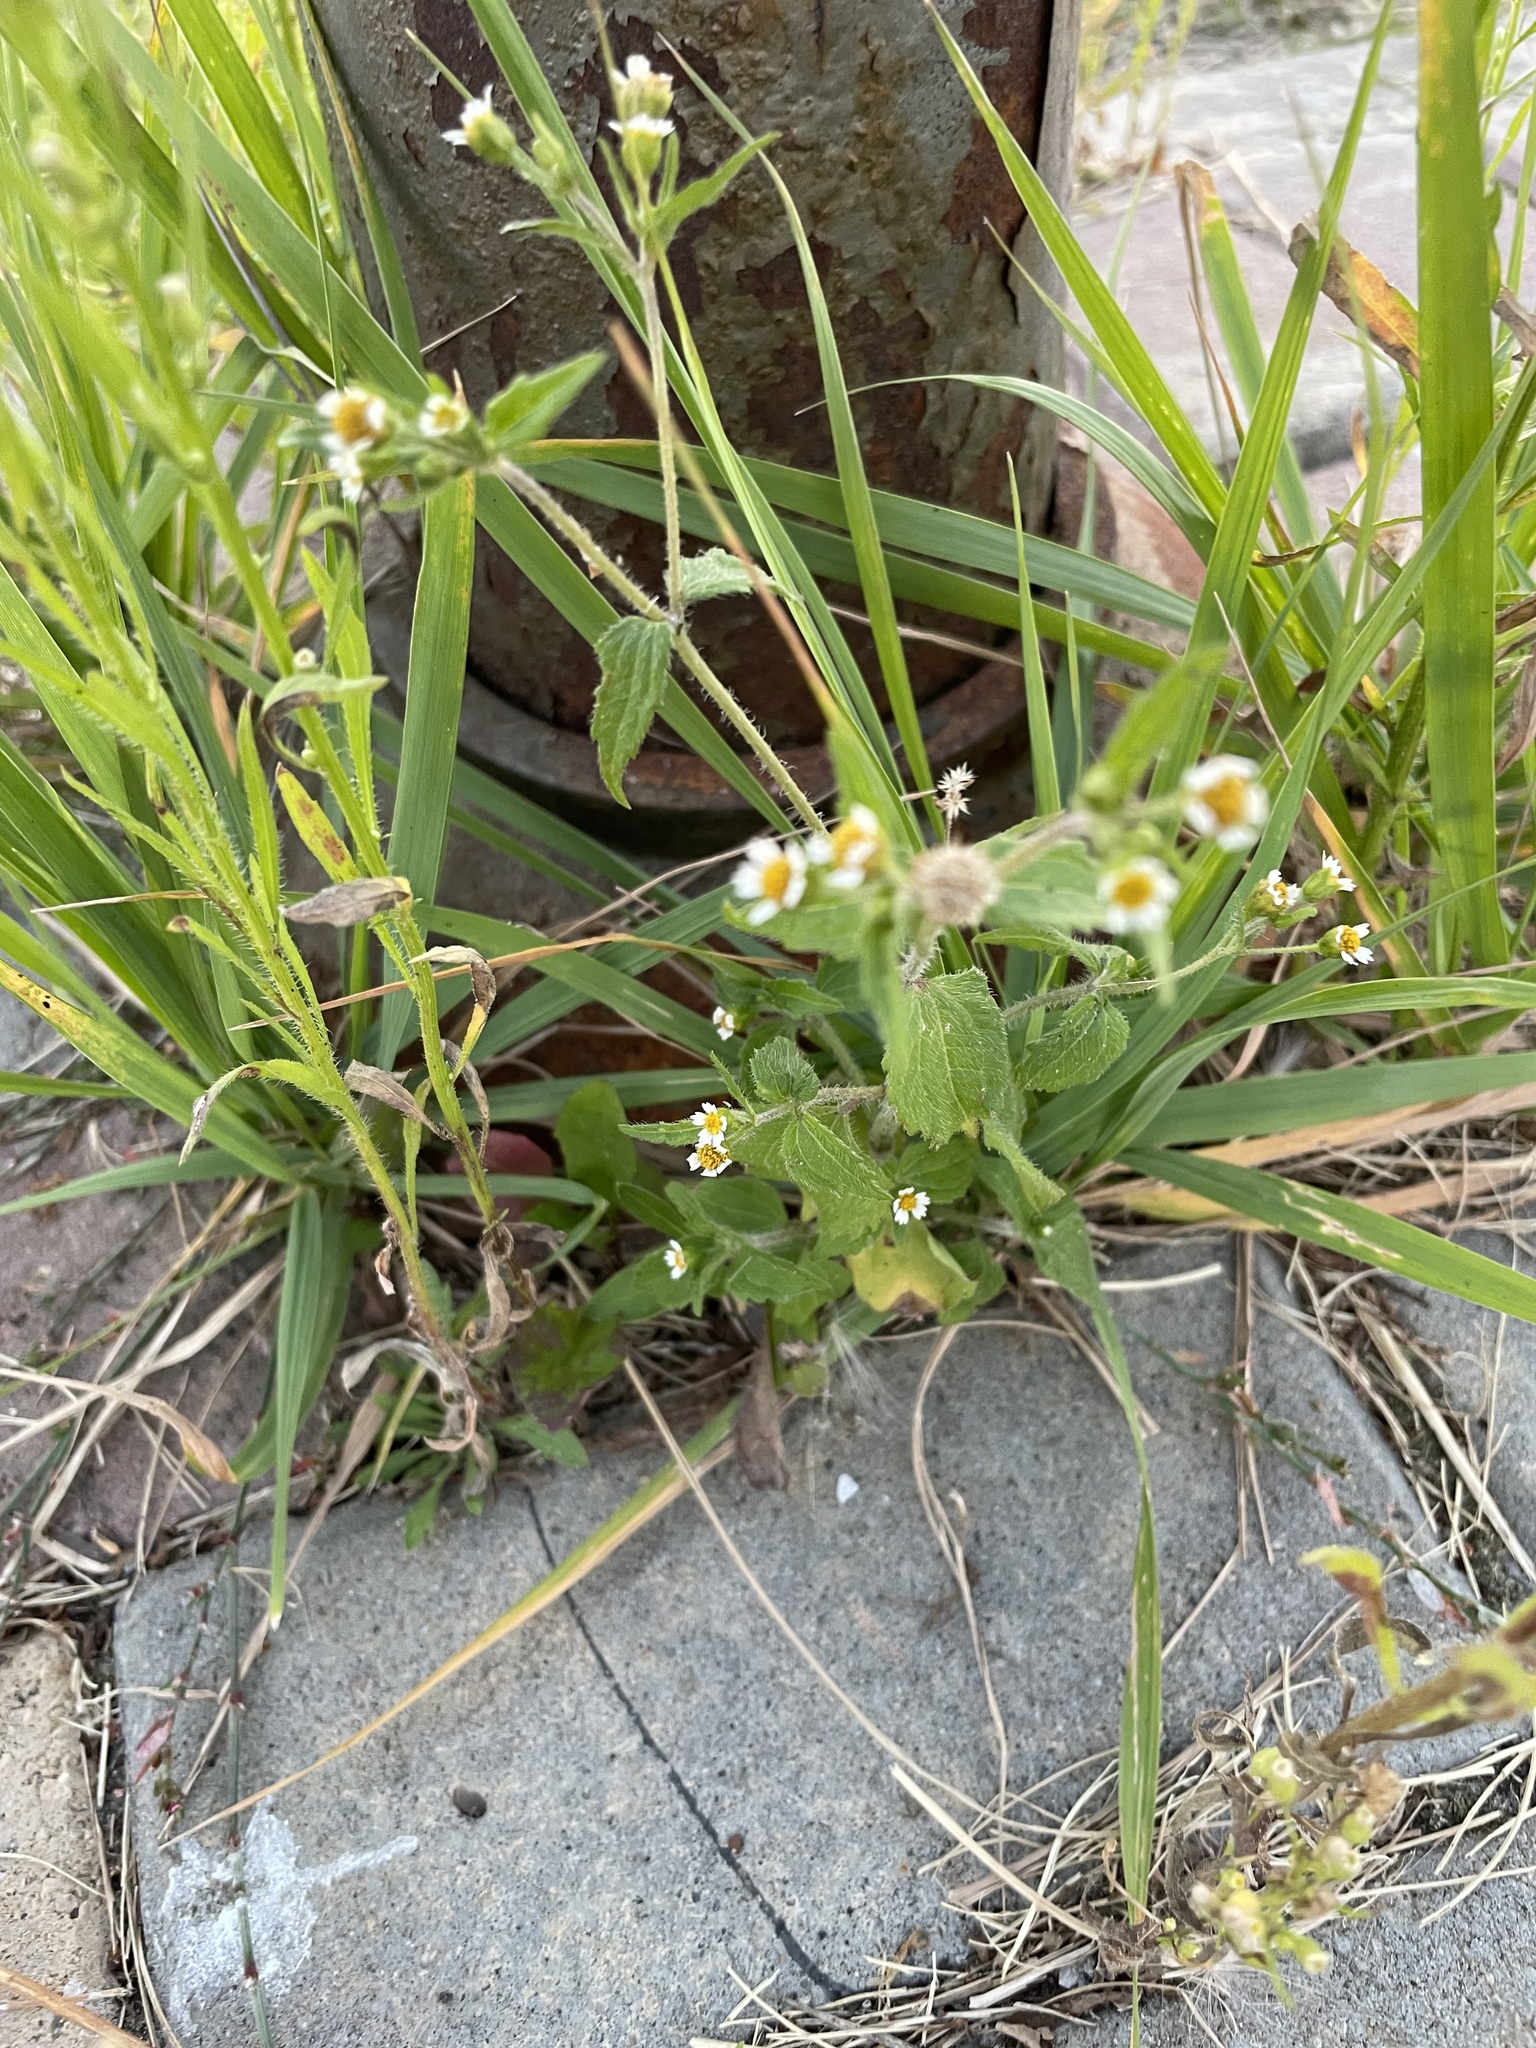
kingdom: Plantae
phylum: Tracheophyta
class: Magnoliopsida
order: Asterales
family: Asteraceae
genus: Galinsoga
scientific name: Galinsoga quadriradiata
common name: Shaggy soldier
